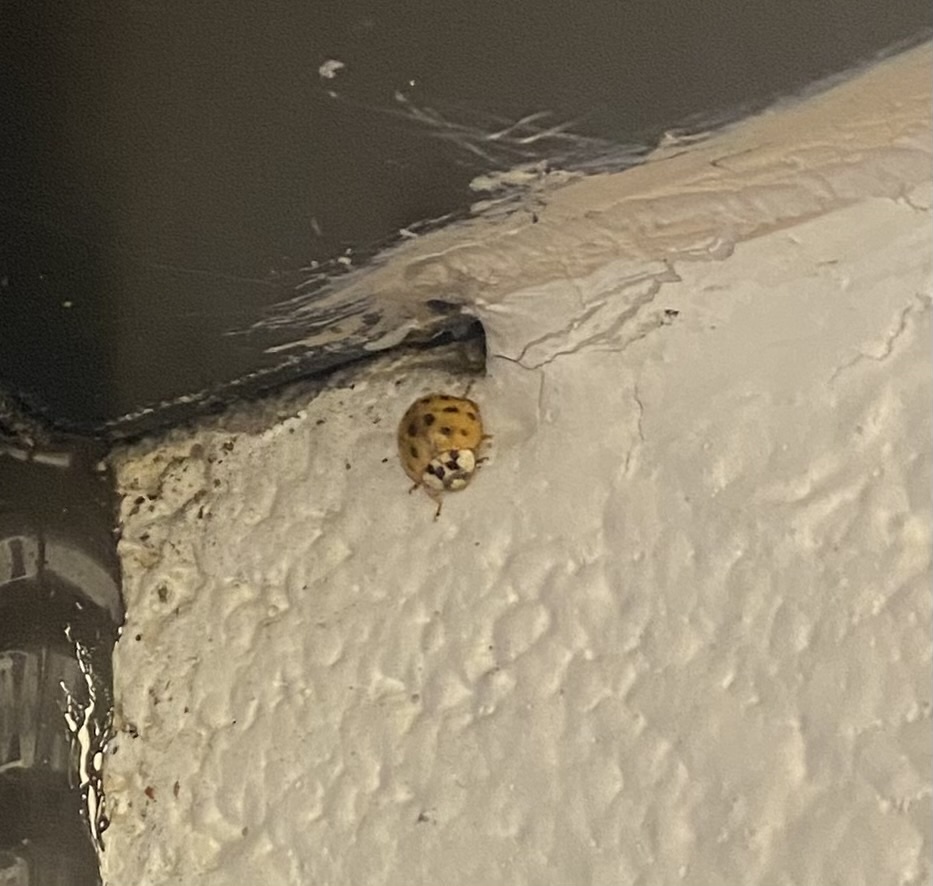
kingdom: Animalia
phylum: Arthropoda
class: Insecta
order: Coleoptera
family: Coccinellidae
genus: Harmonia
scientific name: Harmonia axyridis
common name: Harlequin ladybird
